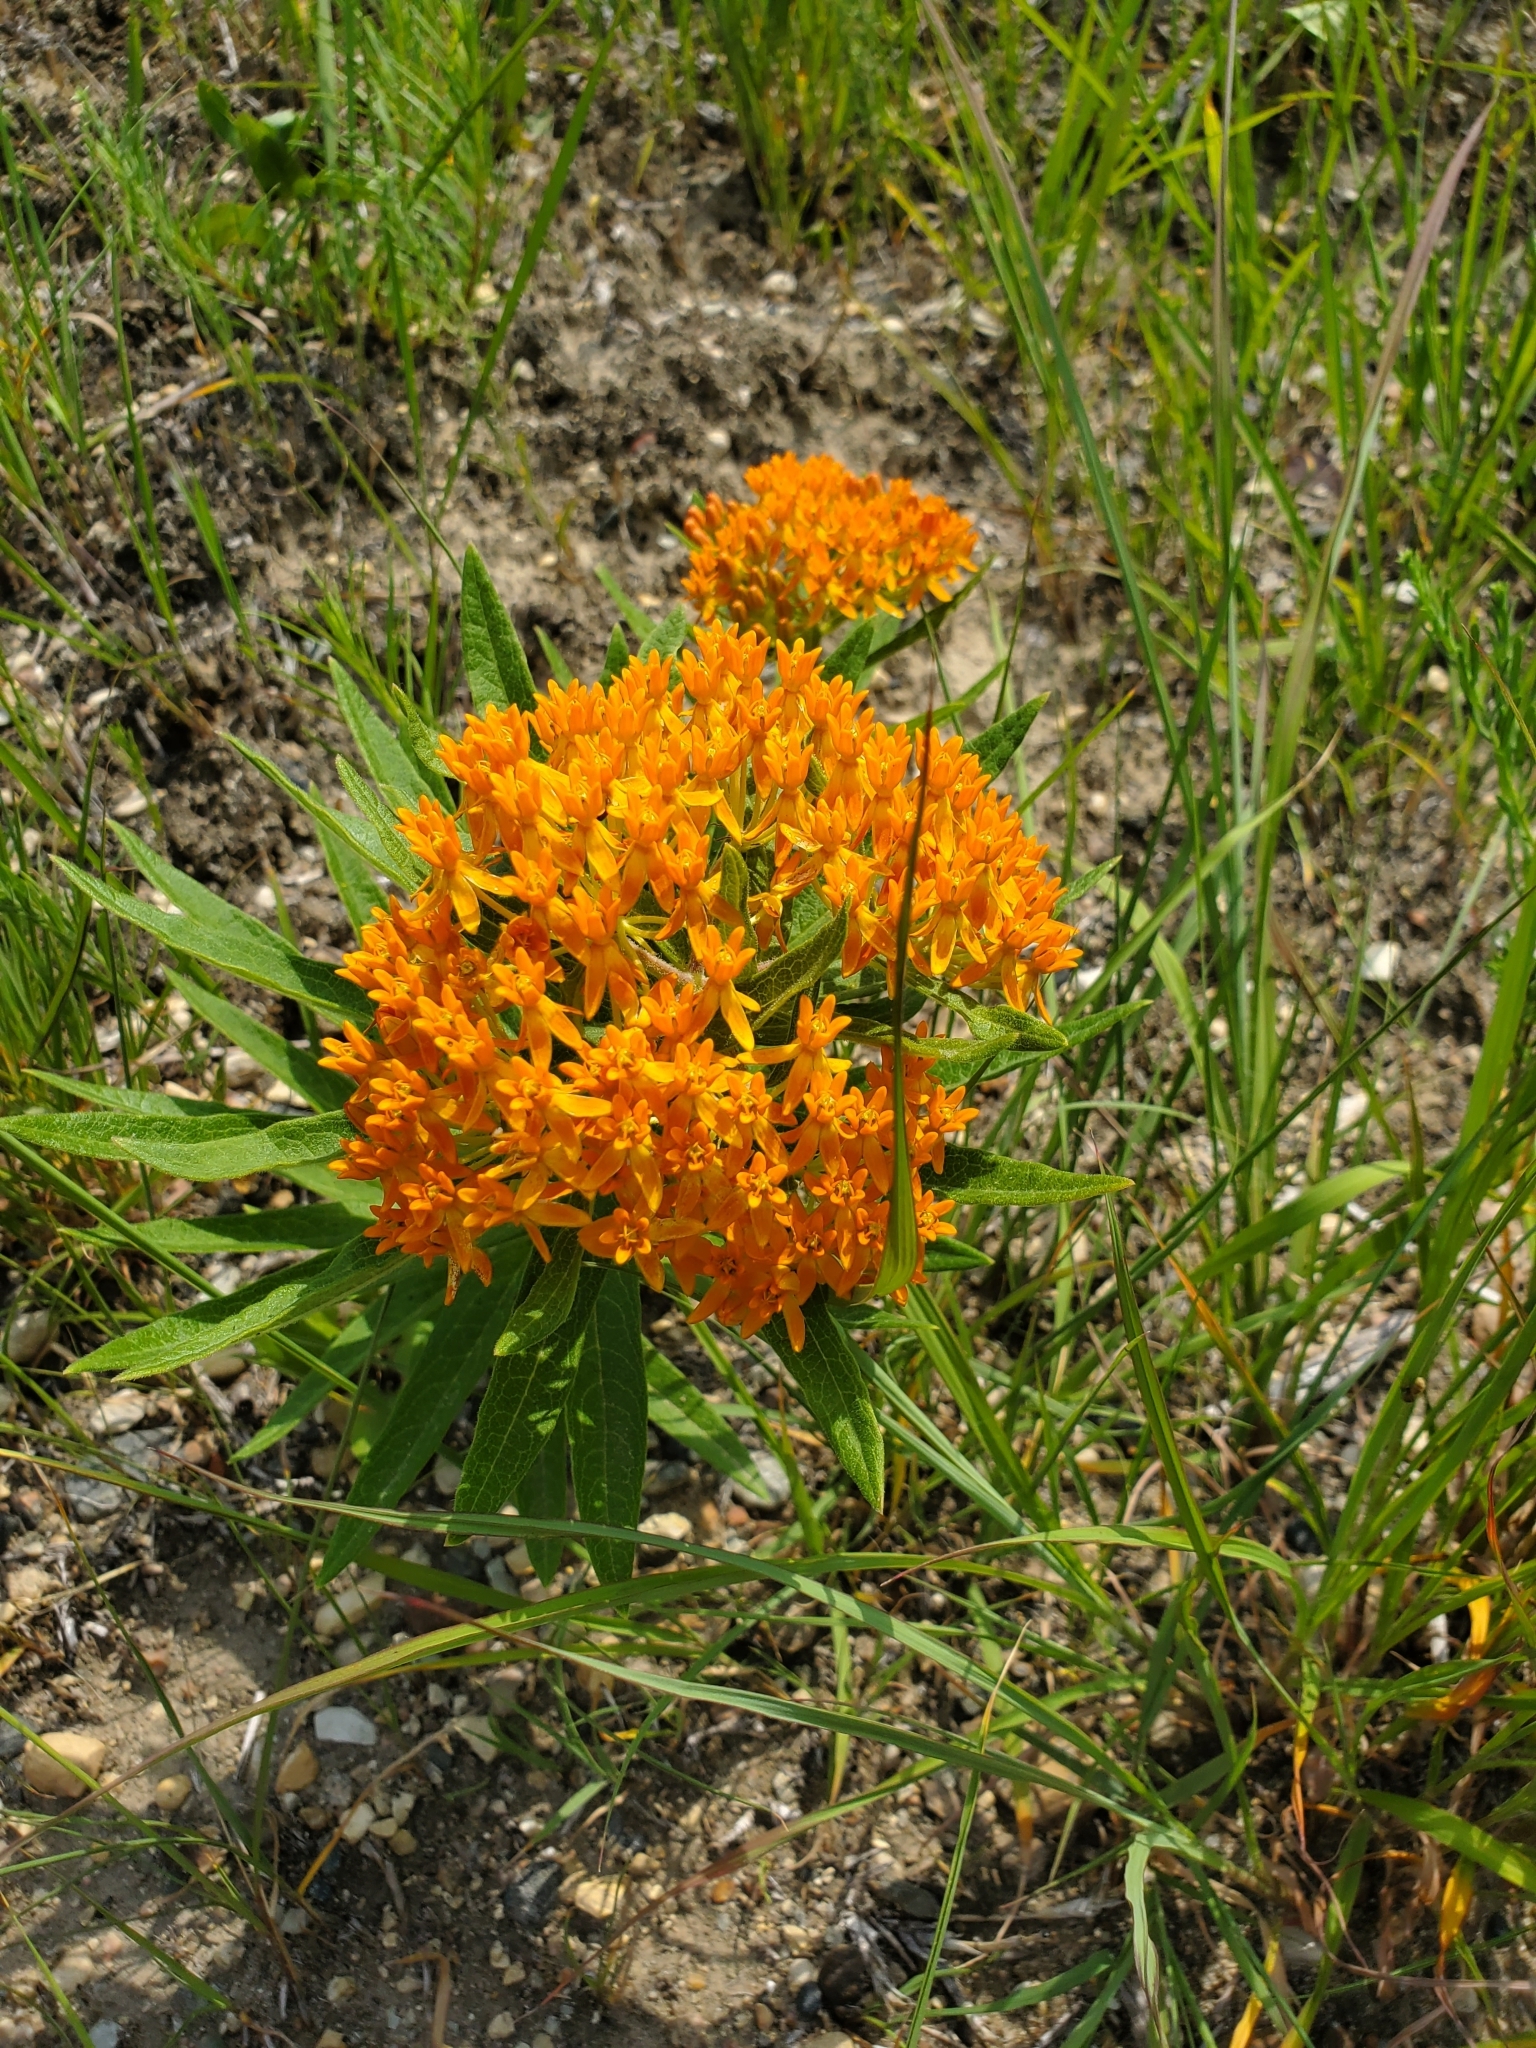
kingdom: Plantae
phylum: Tracheophyta
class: Magnoliopsida
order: Gentianales
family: Apocynaceae
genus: Asclepias
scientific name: Asclepias tuberosa
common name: Butterfly milkweed
